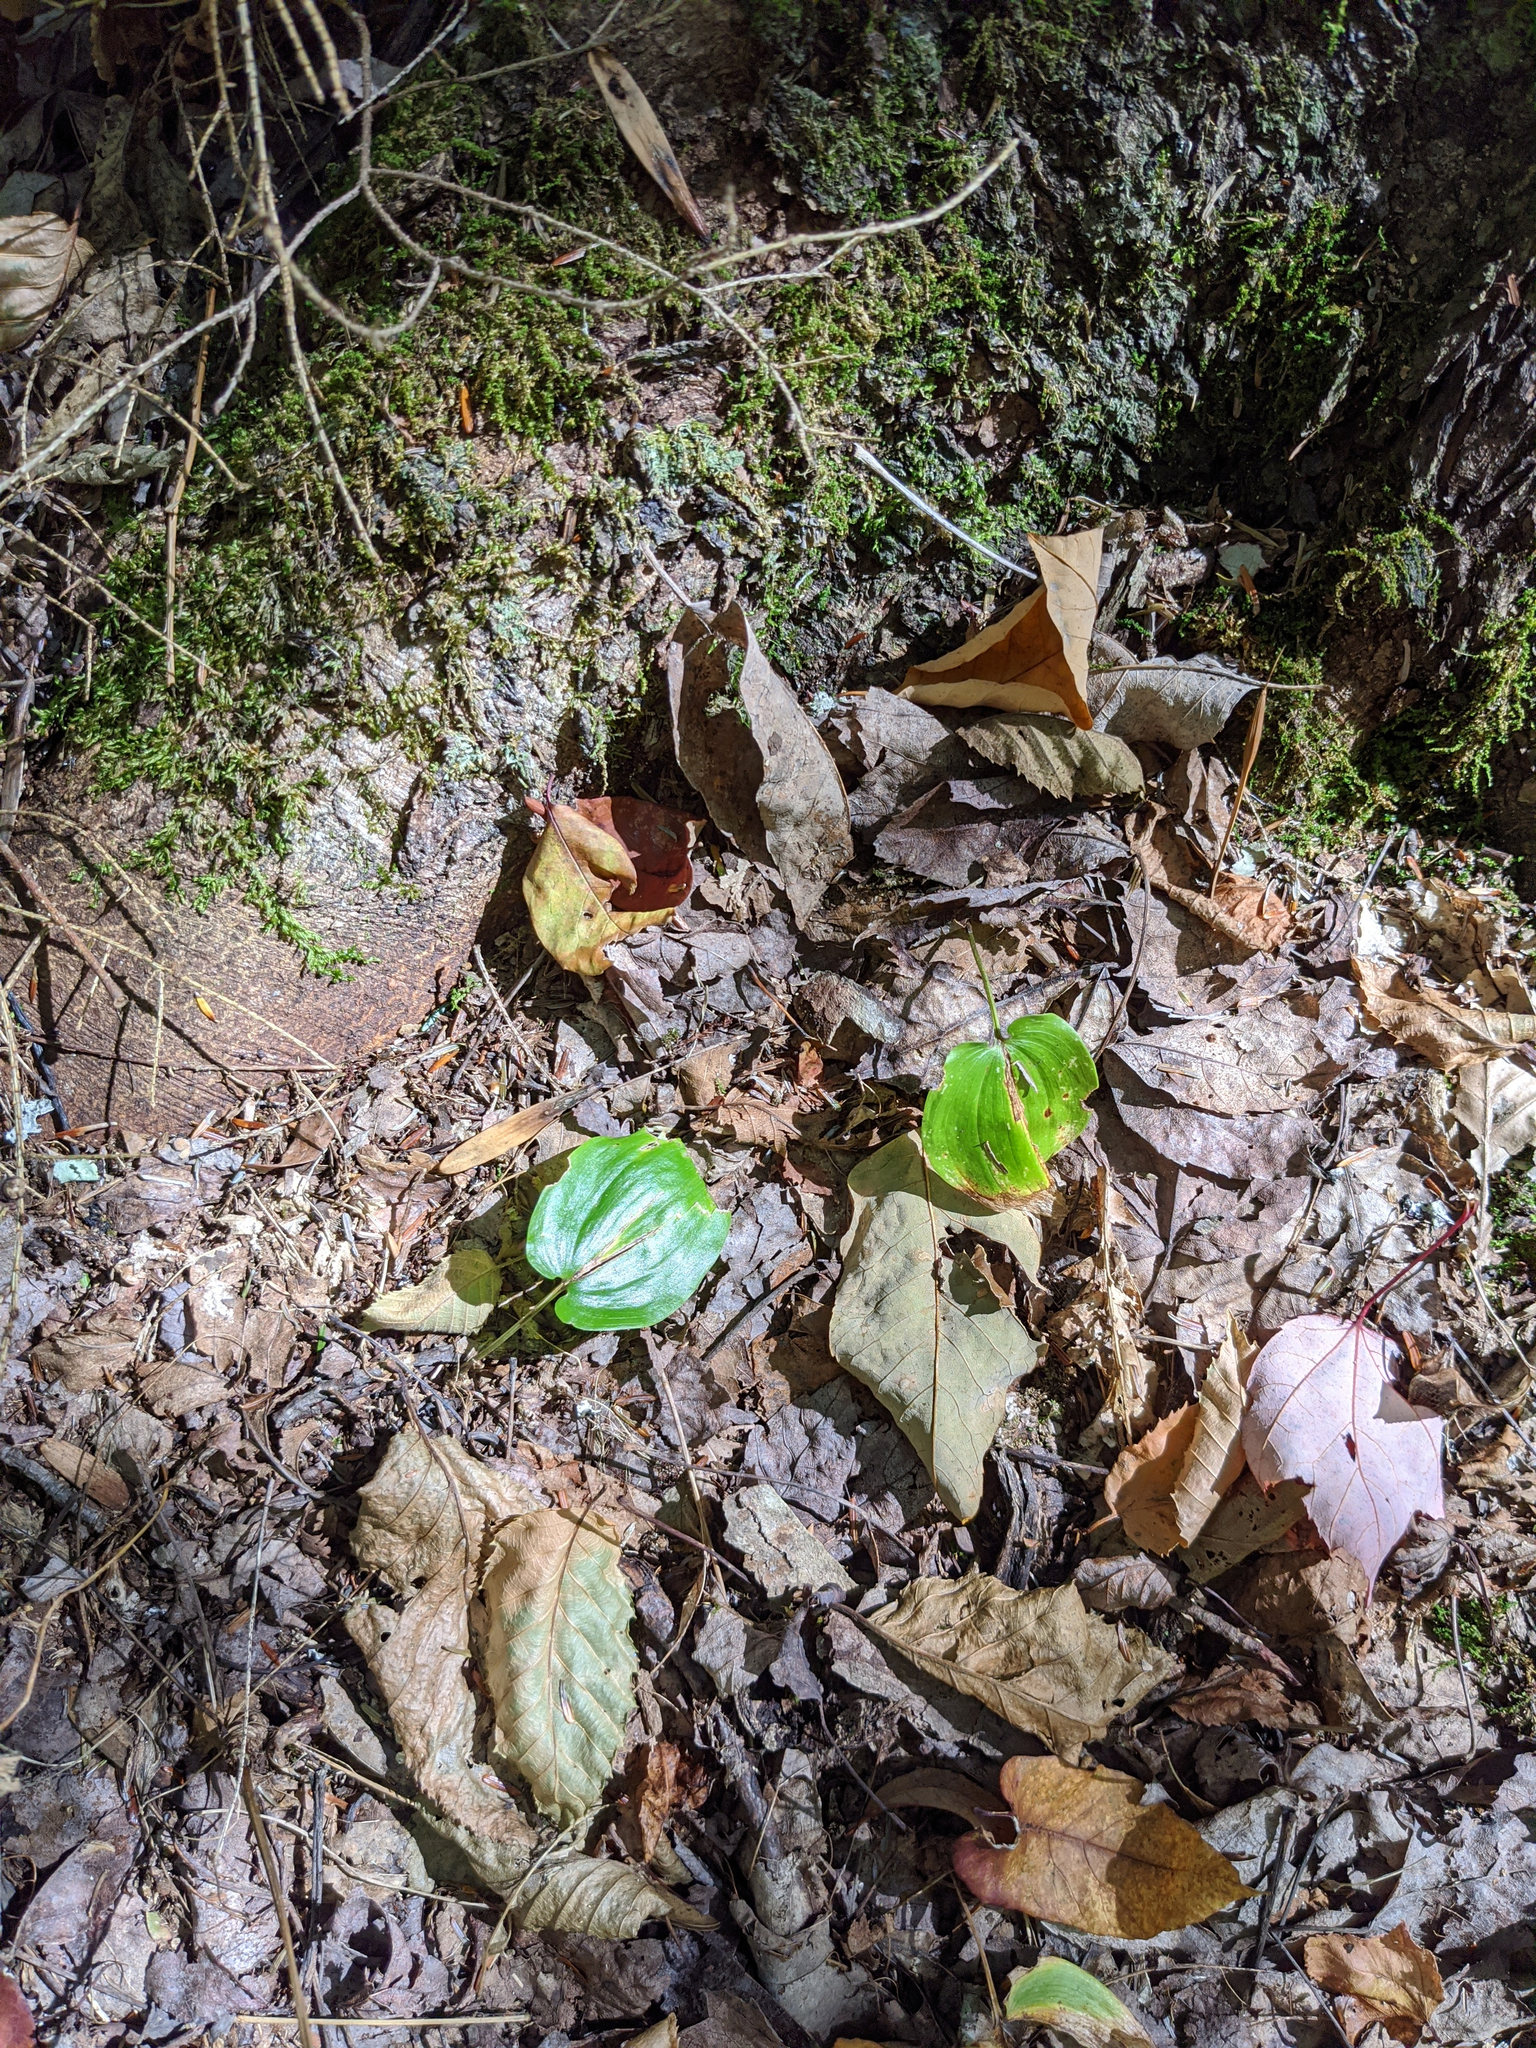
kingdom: Plantae
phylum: Tracheophyta
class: Liliopsida
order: Asparagales
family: Asparagaceae
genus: Maianthemum
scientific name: Maianthemum canadense
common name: False lily-of-the-valley
